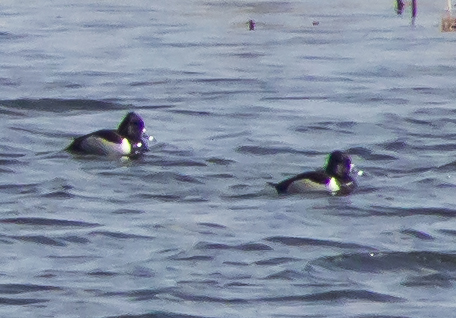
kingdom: Animalia
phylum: Chordata
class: Aves
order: Anseriformes
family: Anatidae
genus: Aythya
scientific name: Aythya collaris
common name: Ring-necked duck
